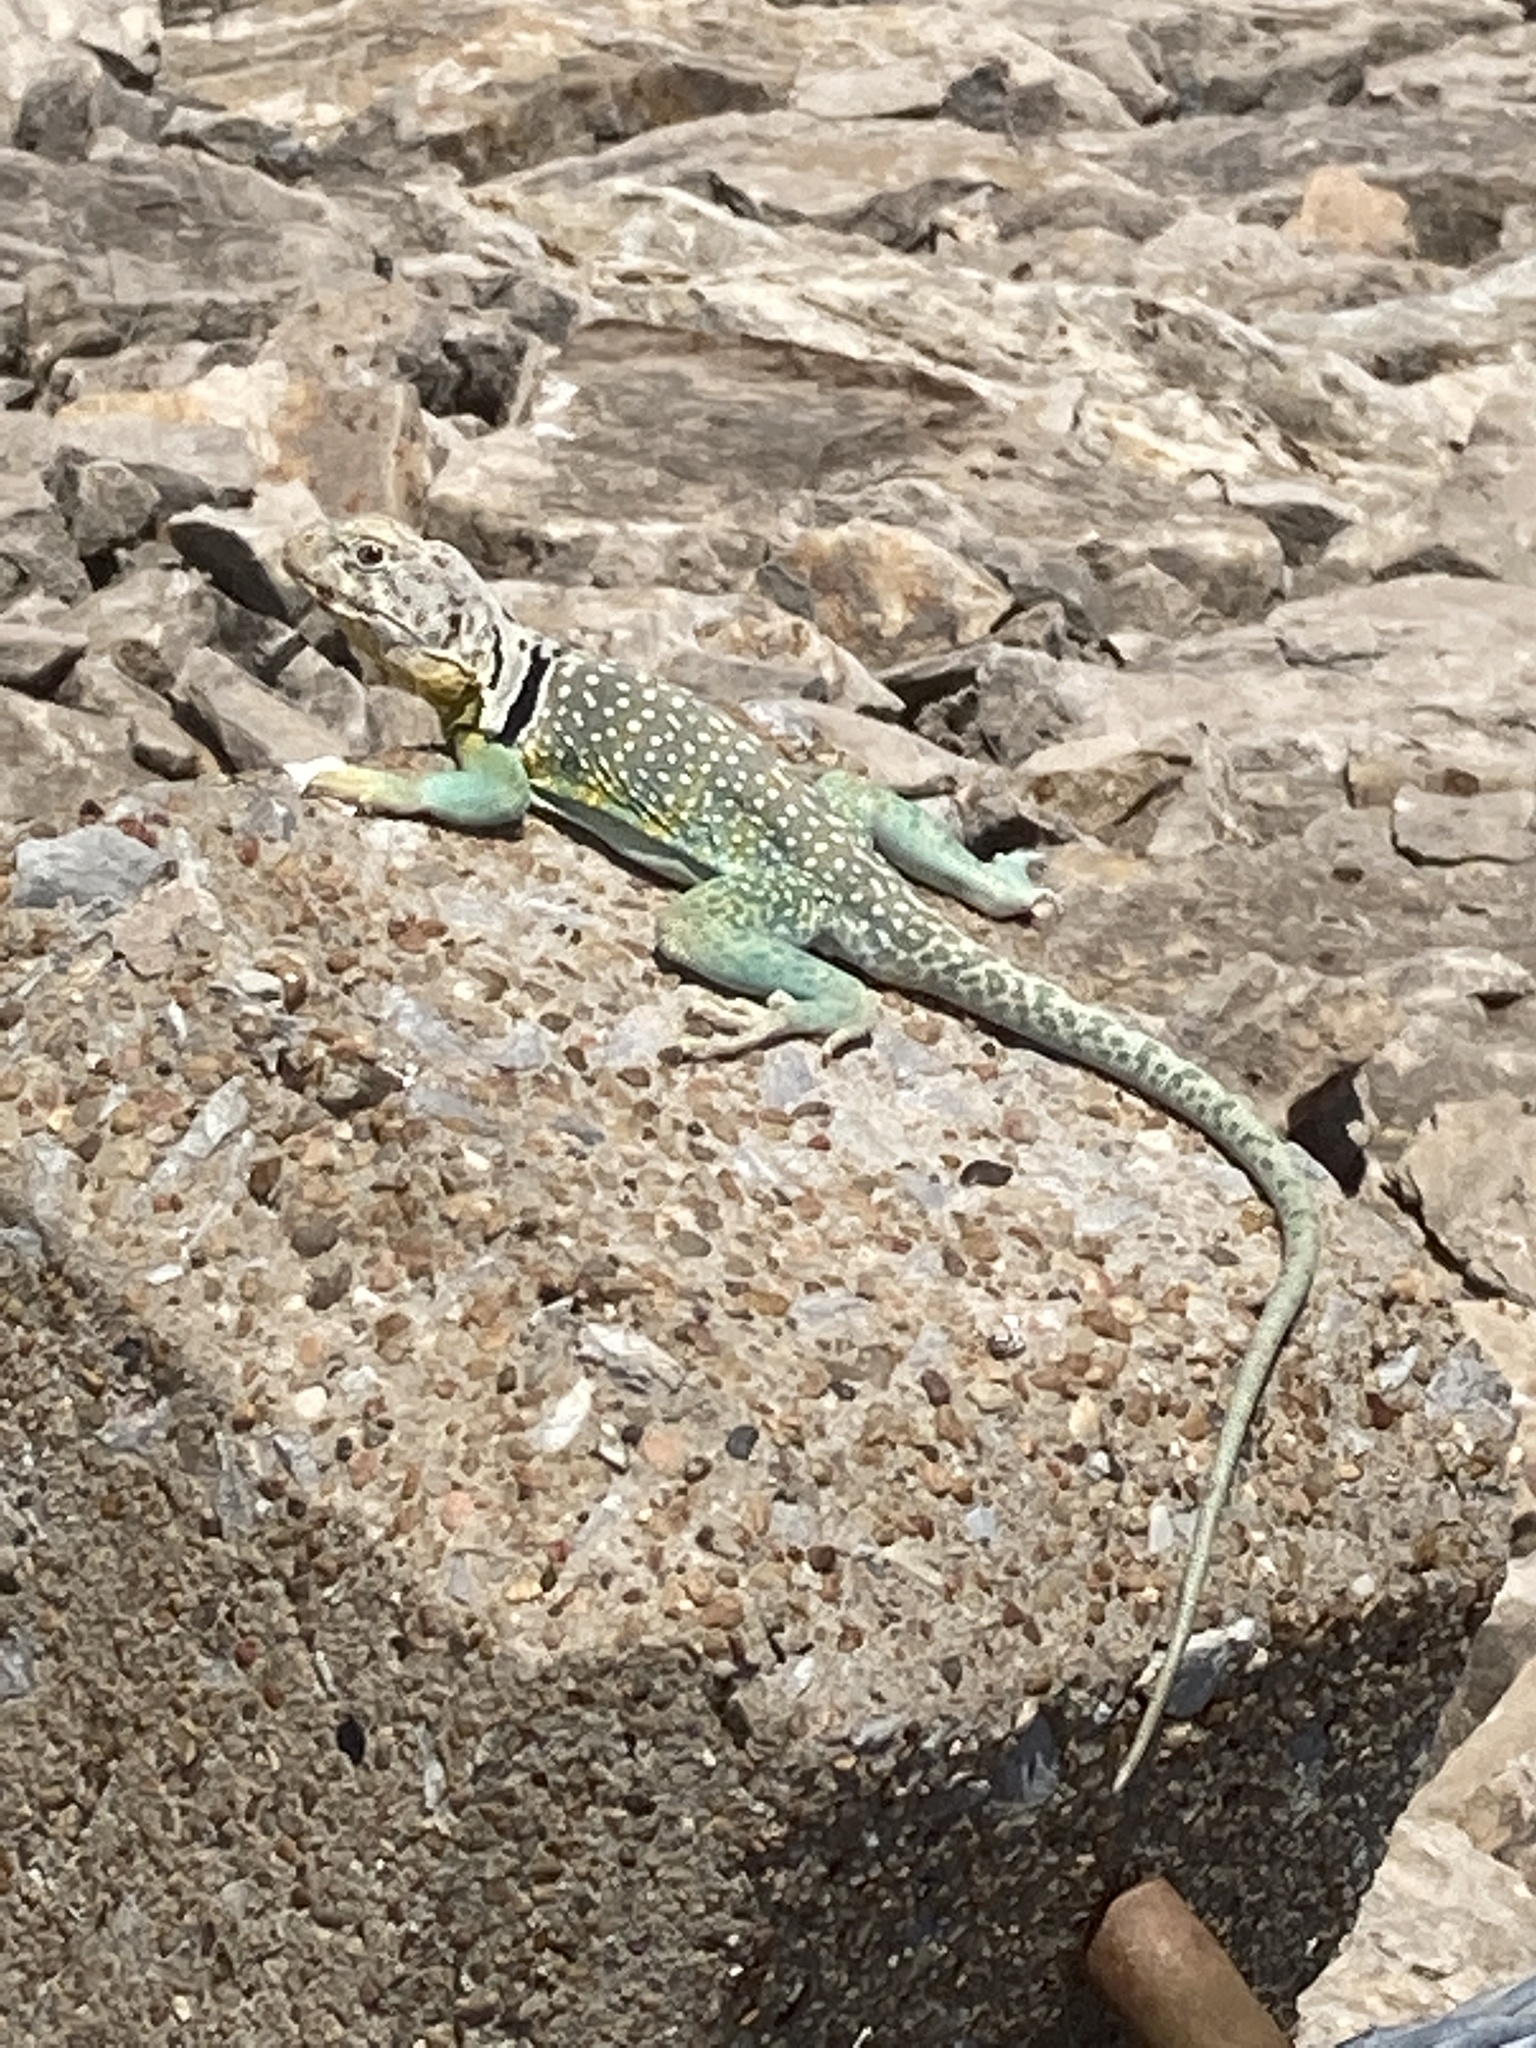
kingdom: Animalia
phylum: Chordata
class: Squamata
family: Crotaphytidae
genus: Crotaphytus
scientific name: Crotaphytus collaris
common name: Collared lizard
